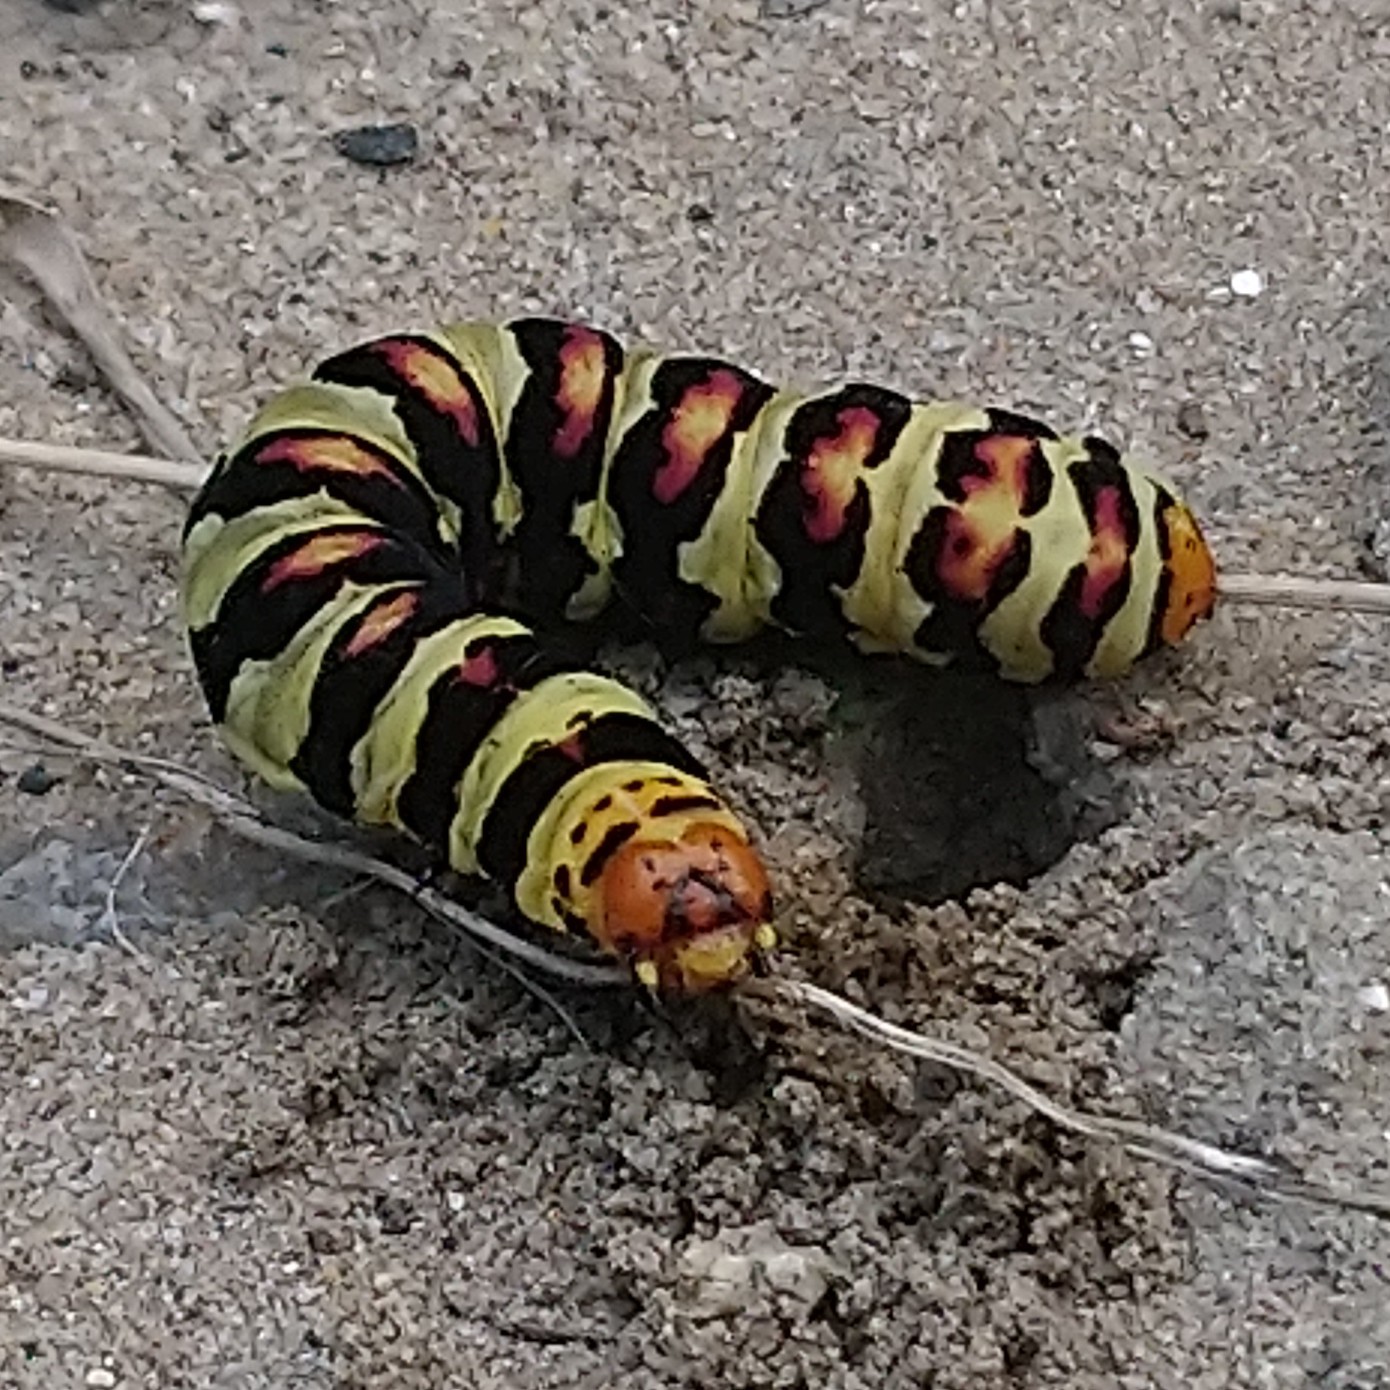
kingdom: Animalia
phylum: Arthropoda
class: Insecta
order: Lepidoptera
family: Noctuidae
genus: Diaphone
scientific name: Diaphone eumela
